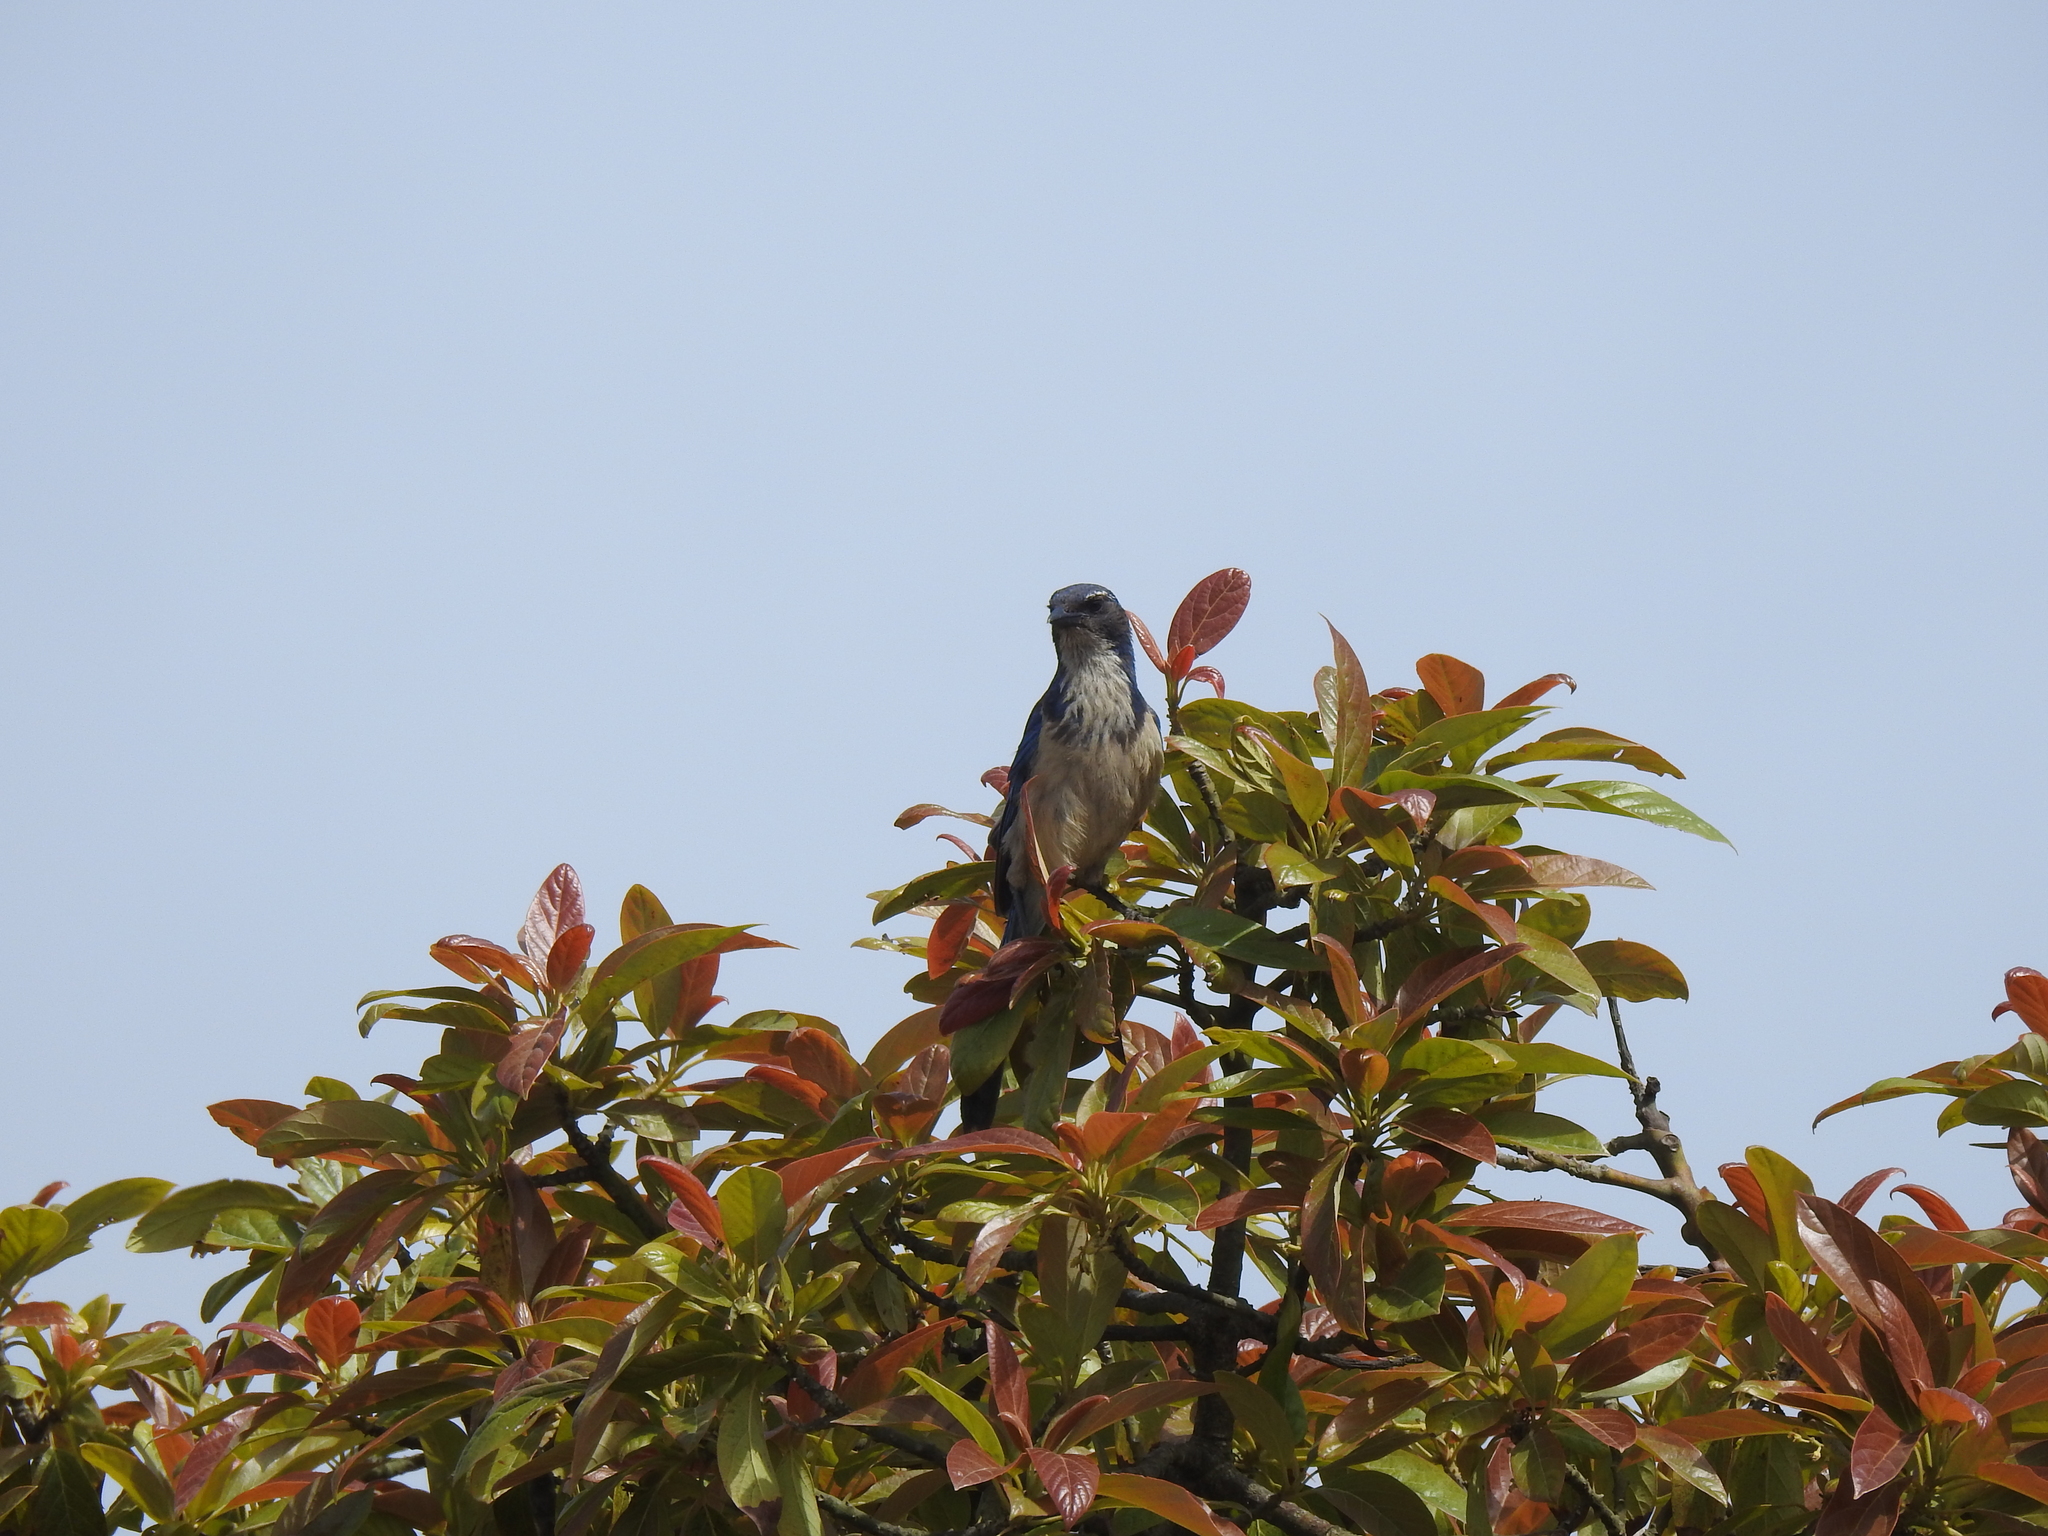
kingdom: Animalia
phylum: Chordata
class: Aves
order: Passeriformes
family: Corvidae
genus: Aphelocoma
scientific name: Aphelocoma californica
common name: California scrub-jay
